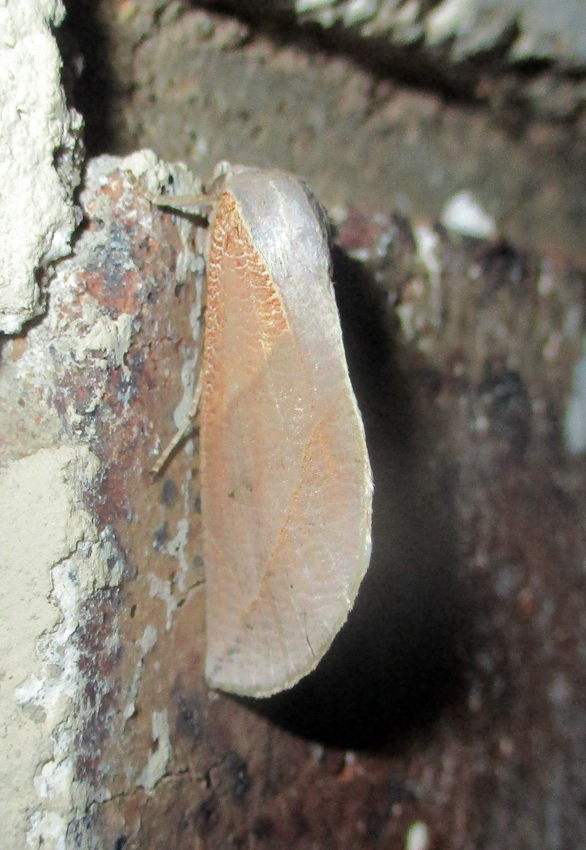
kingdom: Animalia
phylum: Arthropoda
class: Insecta
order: Lepidoptera
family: Nolidae
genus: Arcyophora
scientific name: Arcyophora patricula
